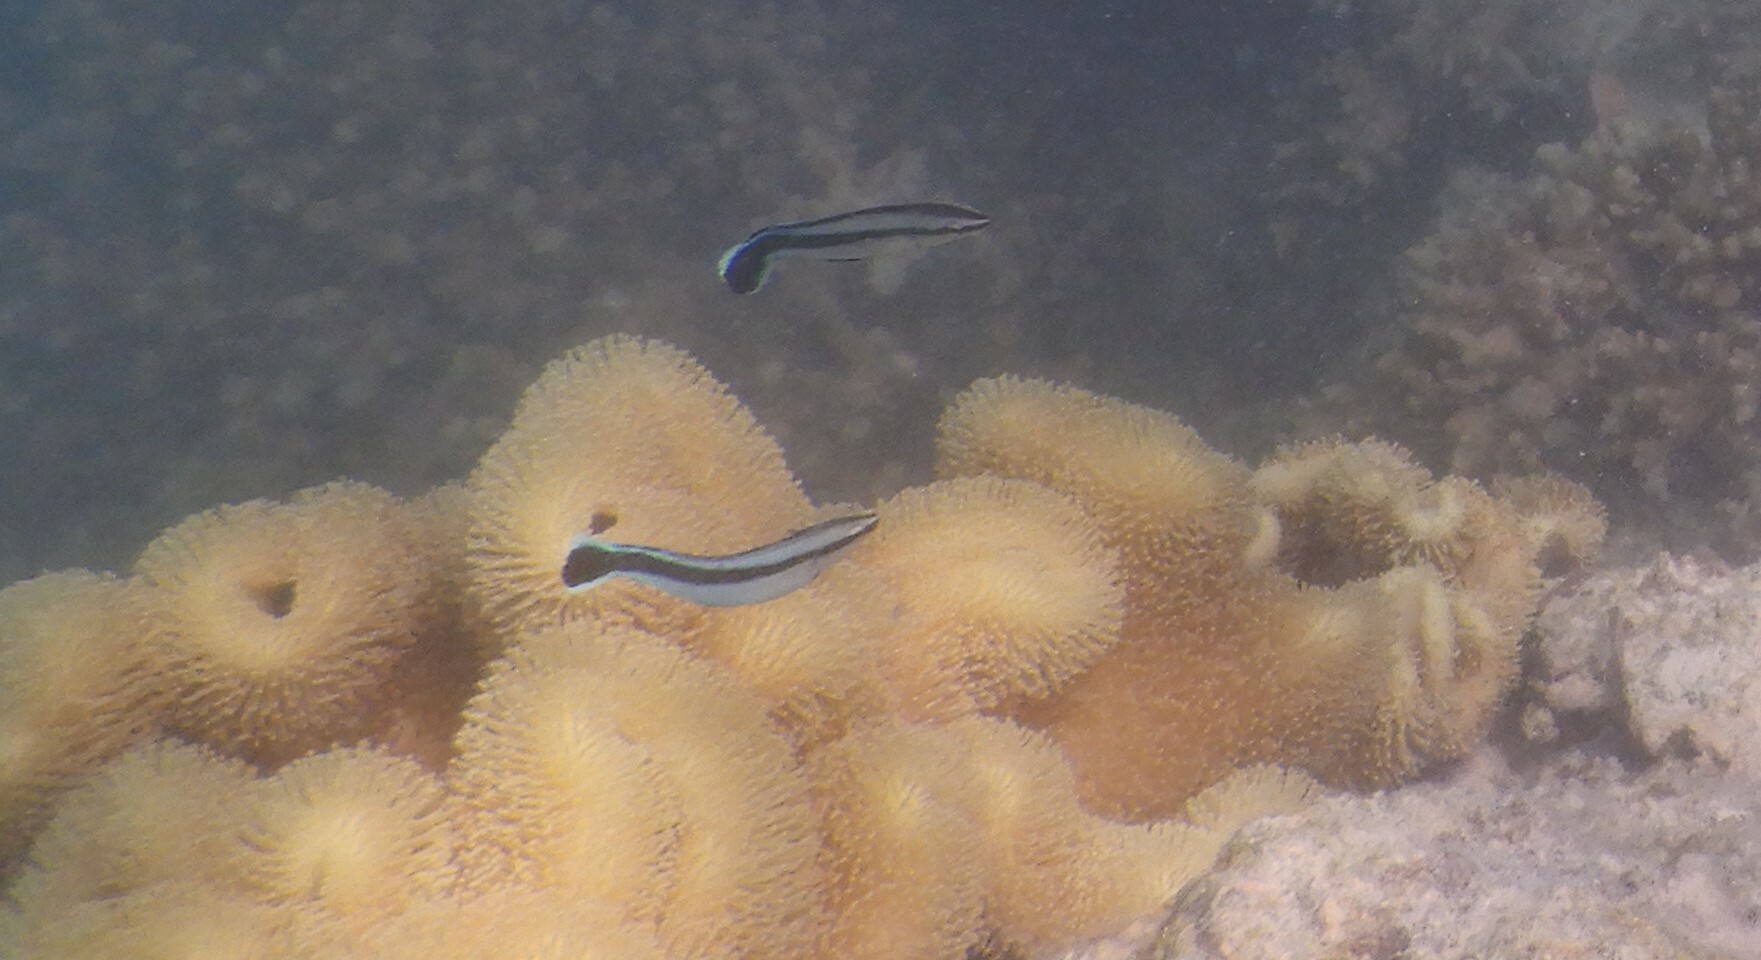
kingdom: Animalia
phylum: Chordata
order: Perciformes
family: Blenniidae
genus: Aspidontus
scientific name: Aspidontus taeniatus
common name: False cleanerfish
